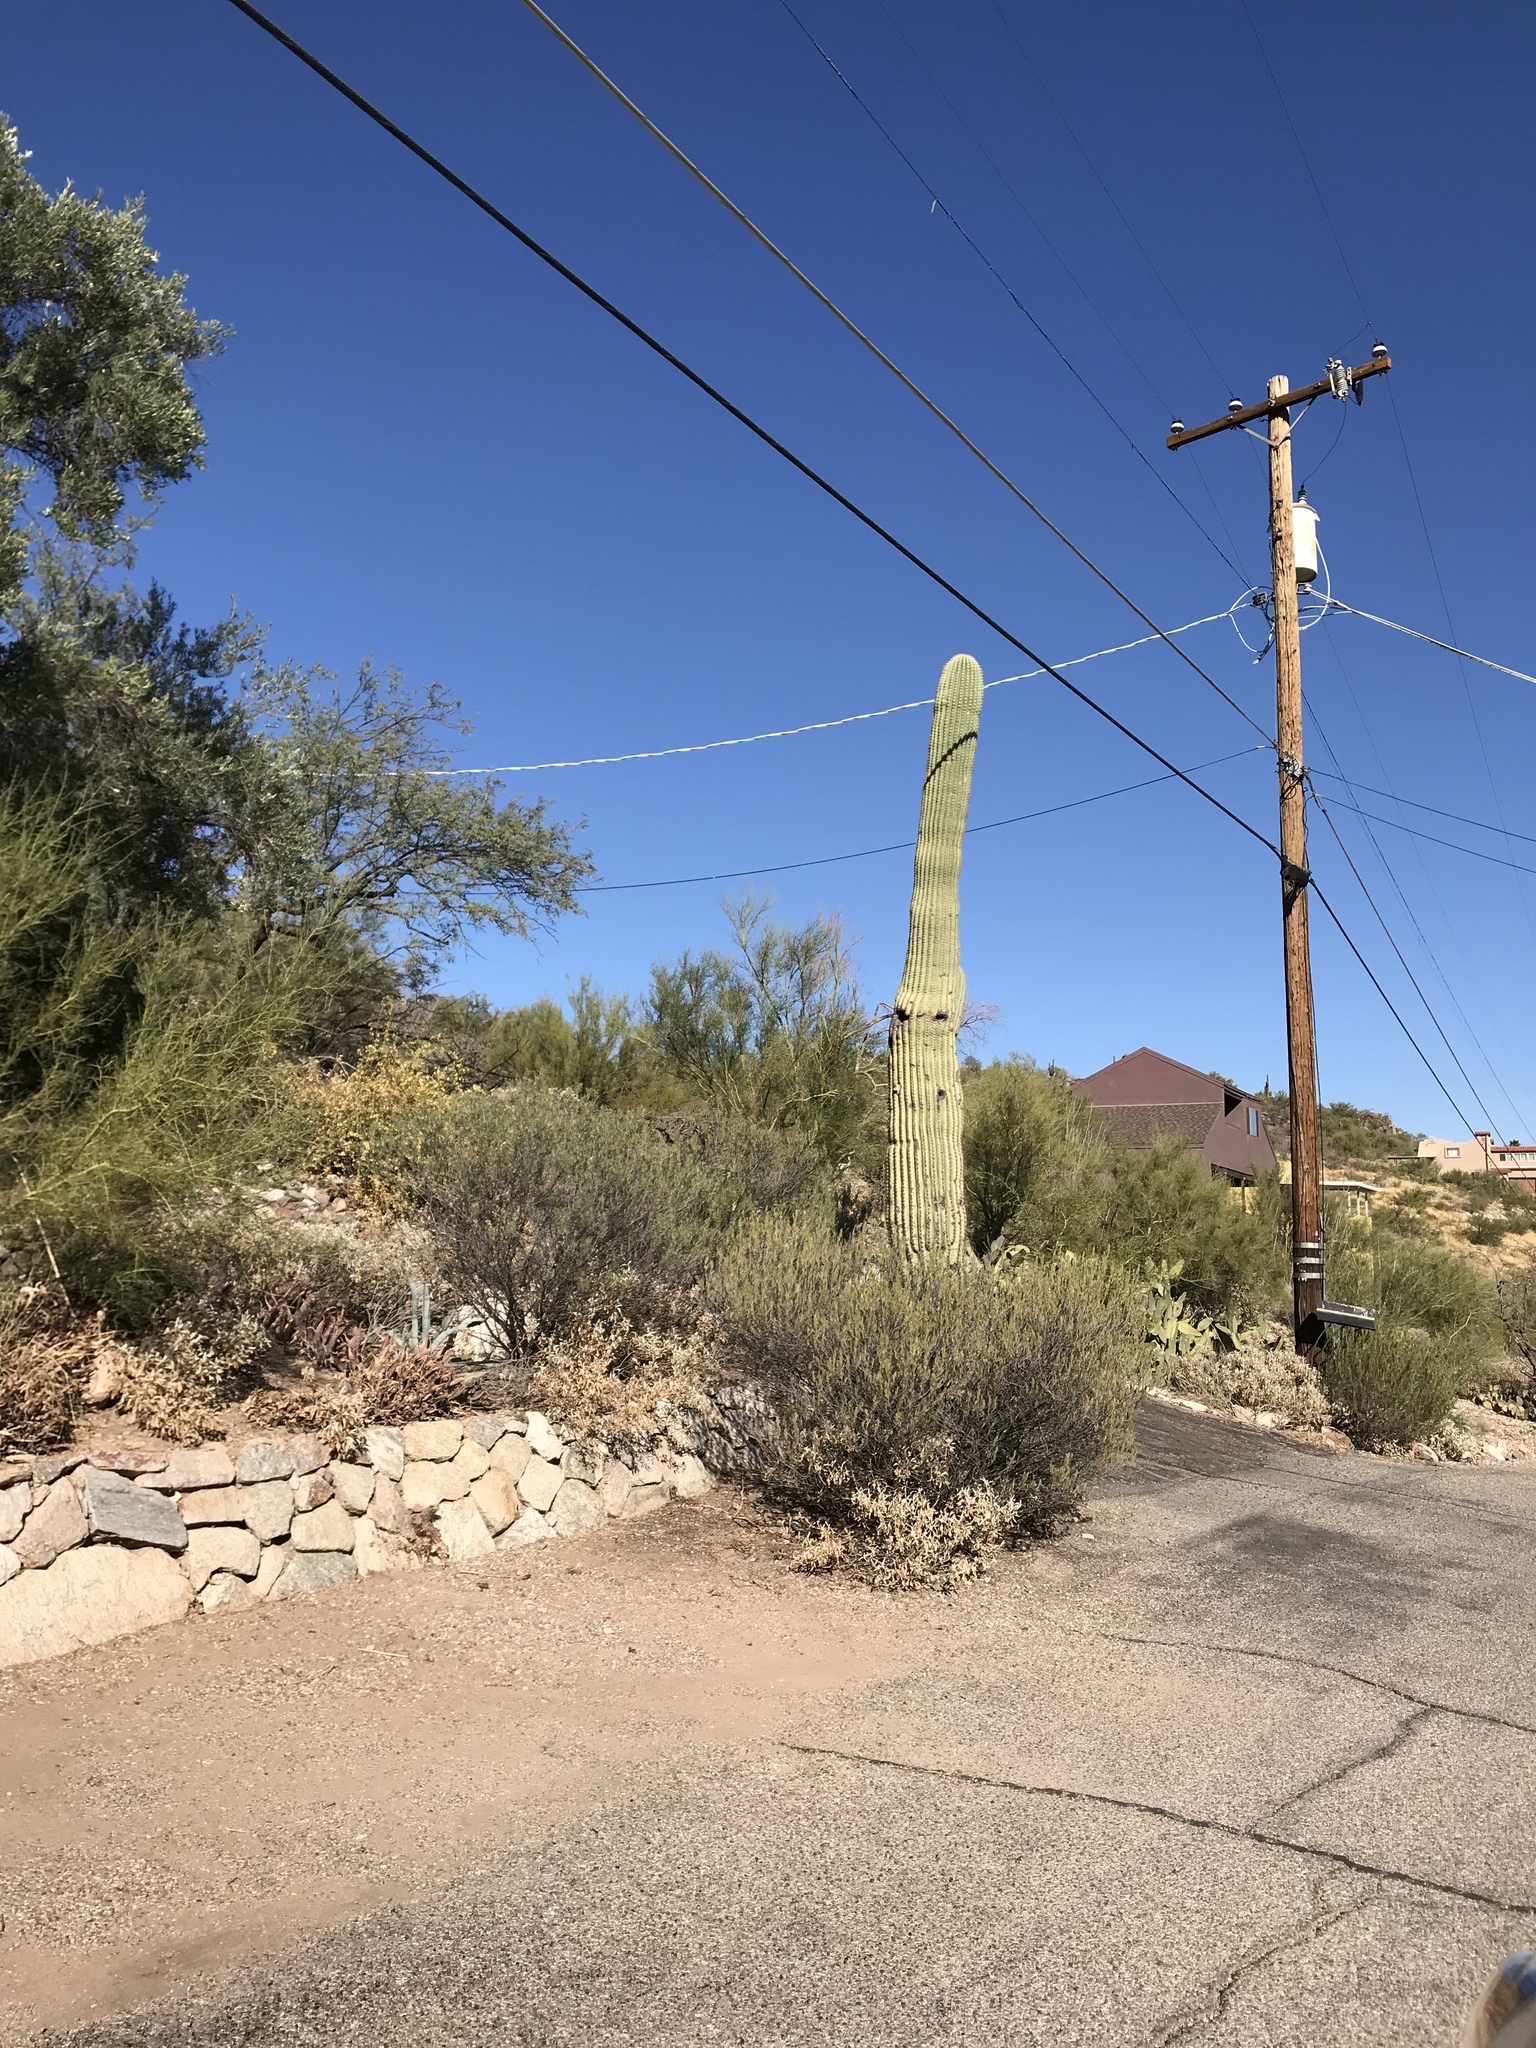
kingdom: Plantae
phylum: Tracheophyta
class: Magnoliopsida
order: Caryophyllales
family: Cactaceae
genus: Carnegiea
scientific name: Carnegiea gigantea
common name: Saguaro
